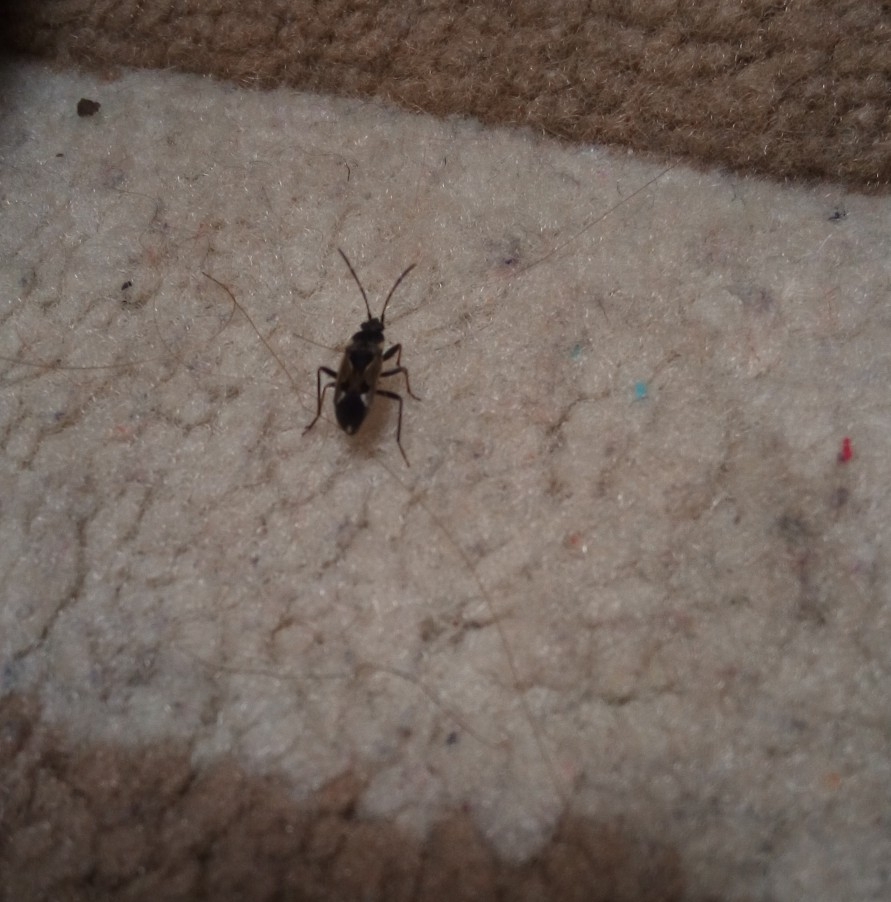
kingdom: Animalia
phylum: Arthropoda
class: Insecta
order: Hemiptera
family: Rhyparochromidae
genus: Rhyparochromus
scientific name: Rhyparochromus vulgaris
